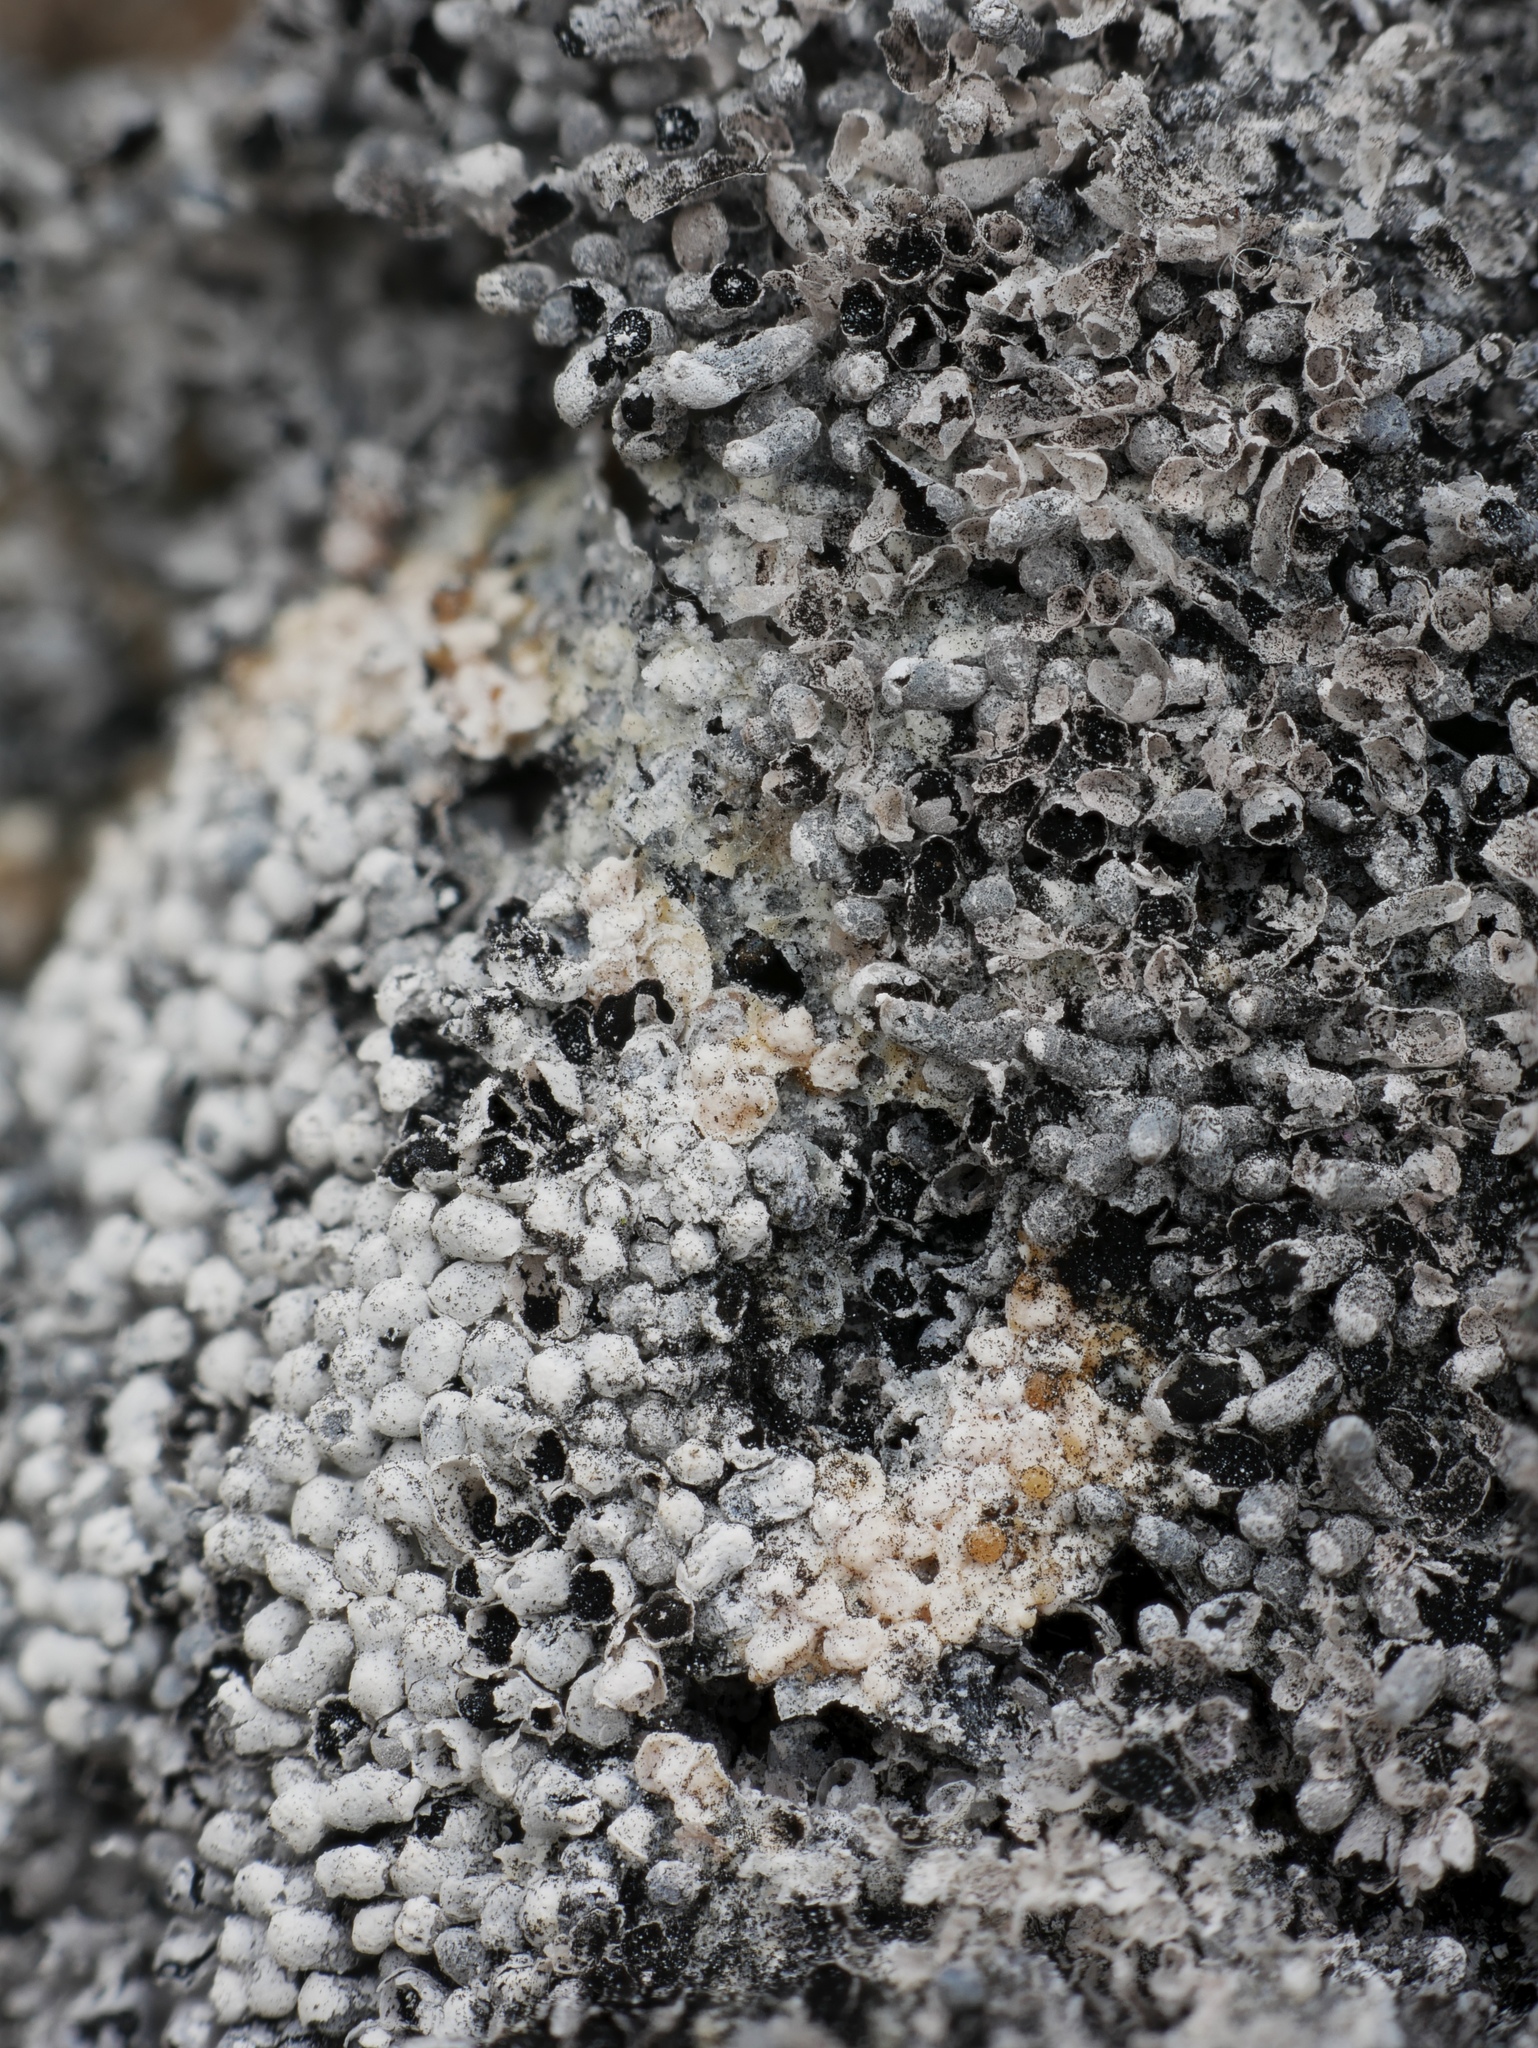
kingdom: Protozoa
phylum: Mycetozoa
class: Myxomycetes
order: Physarales
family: Physaraceae
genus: Physarum
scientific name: Physarum didermoides
